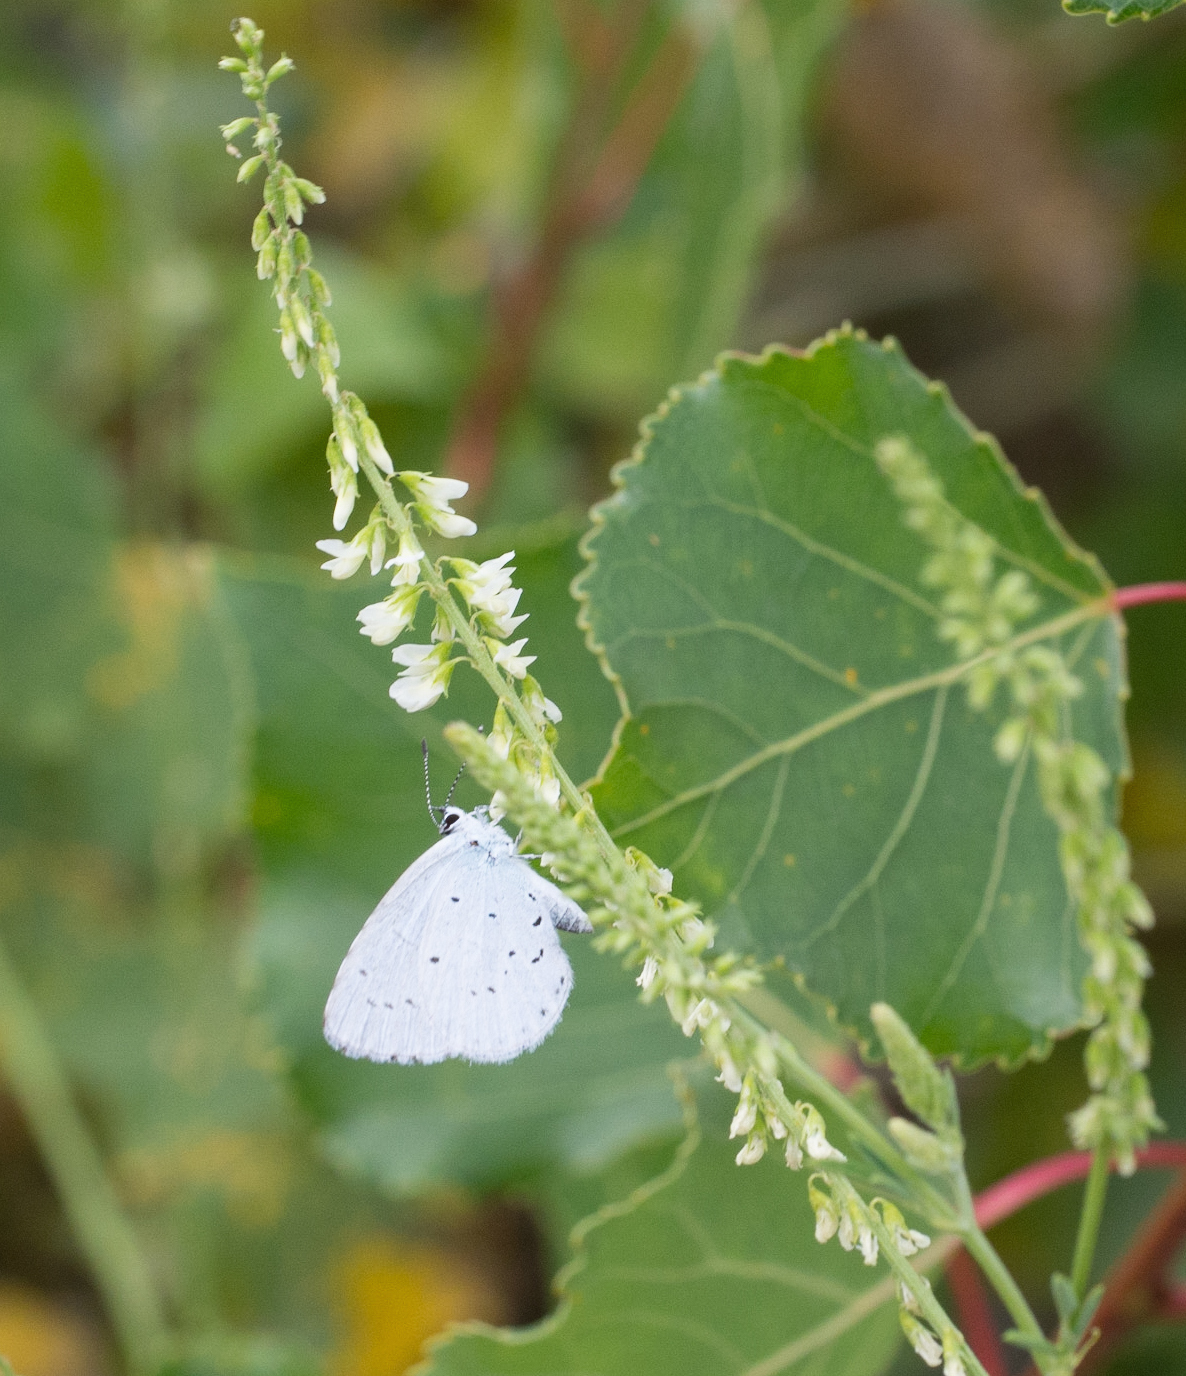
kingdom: Animalia
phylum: Arthropoda
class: Insecta
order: Lepidoptera
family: Lycaenidae
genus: Celastrina
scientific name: Celastrina argiolus
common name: Holly blue
